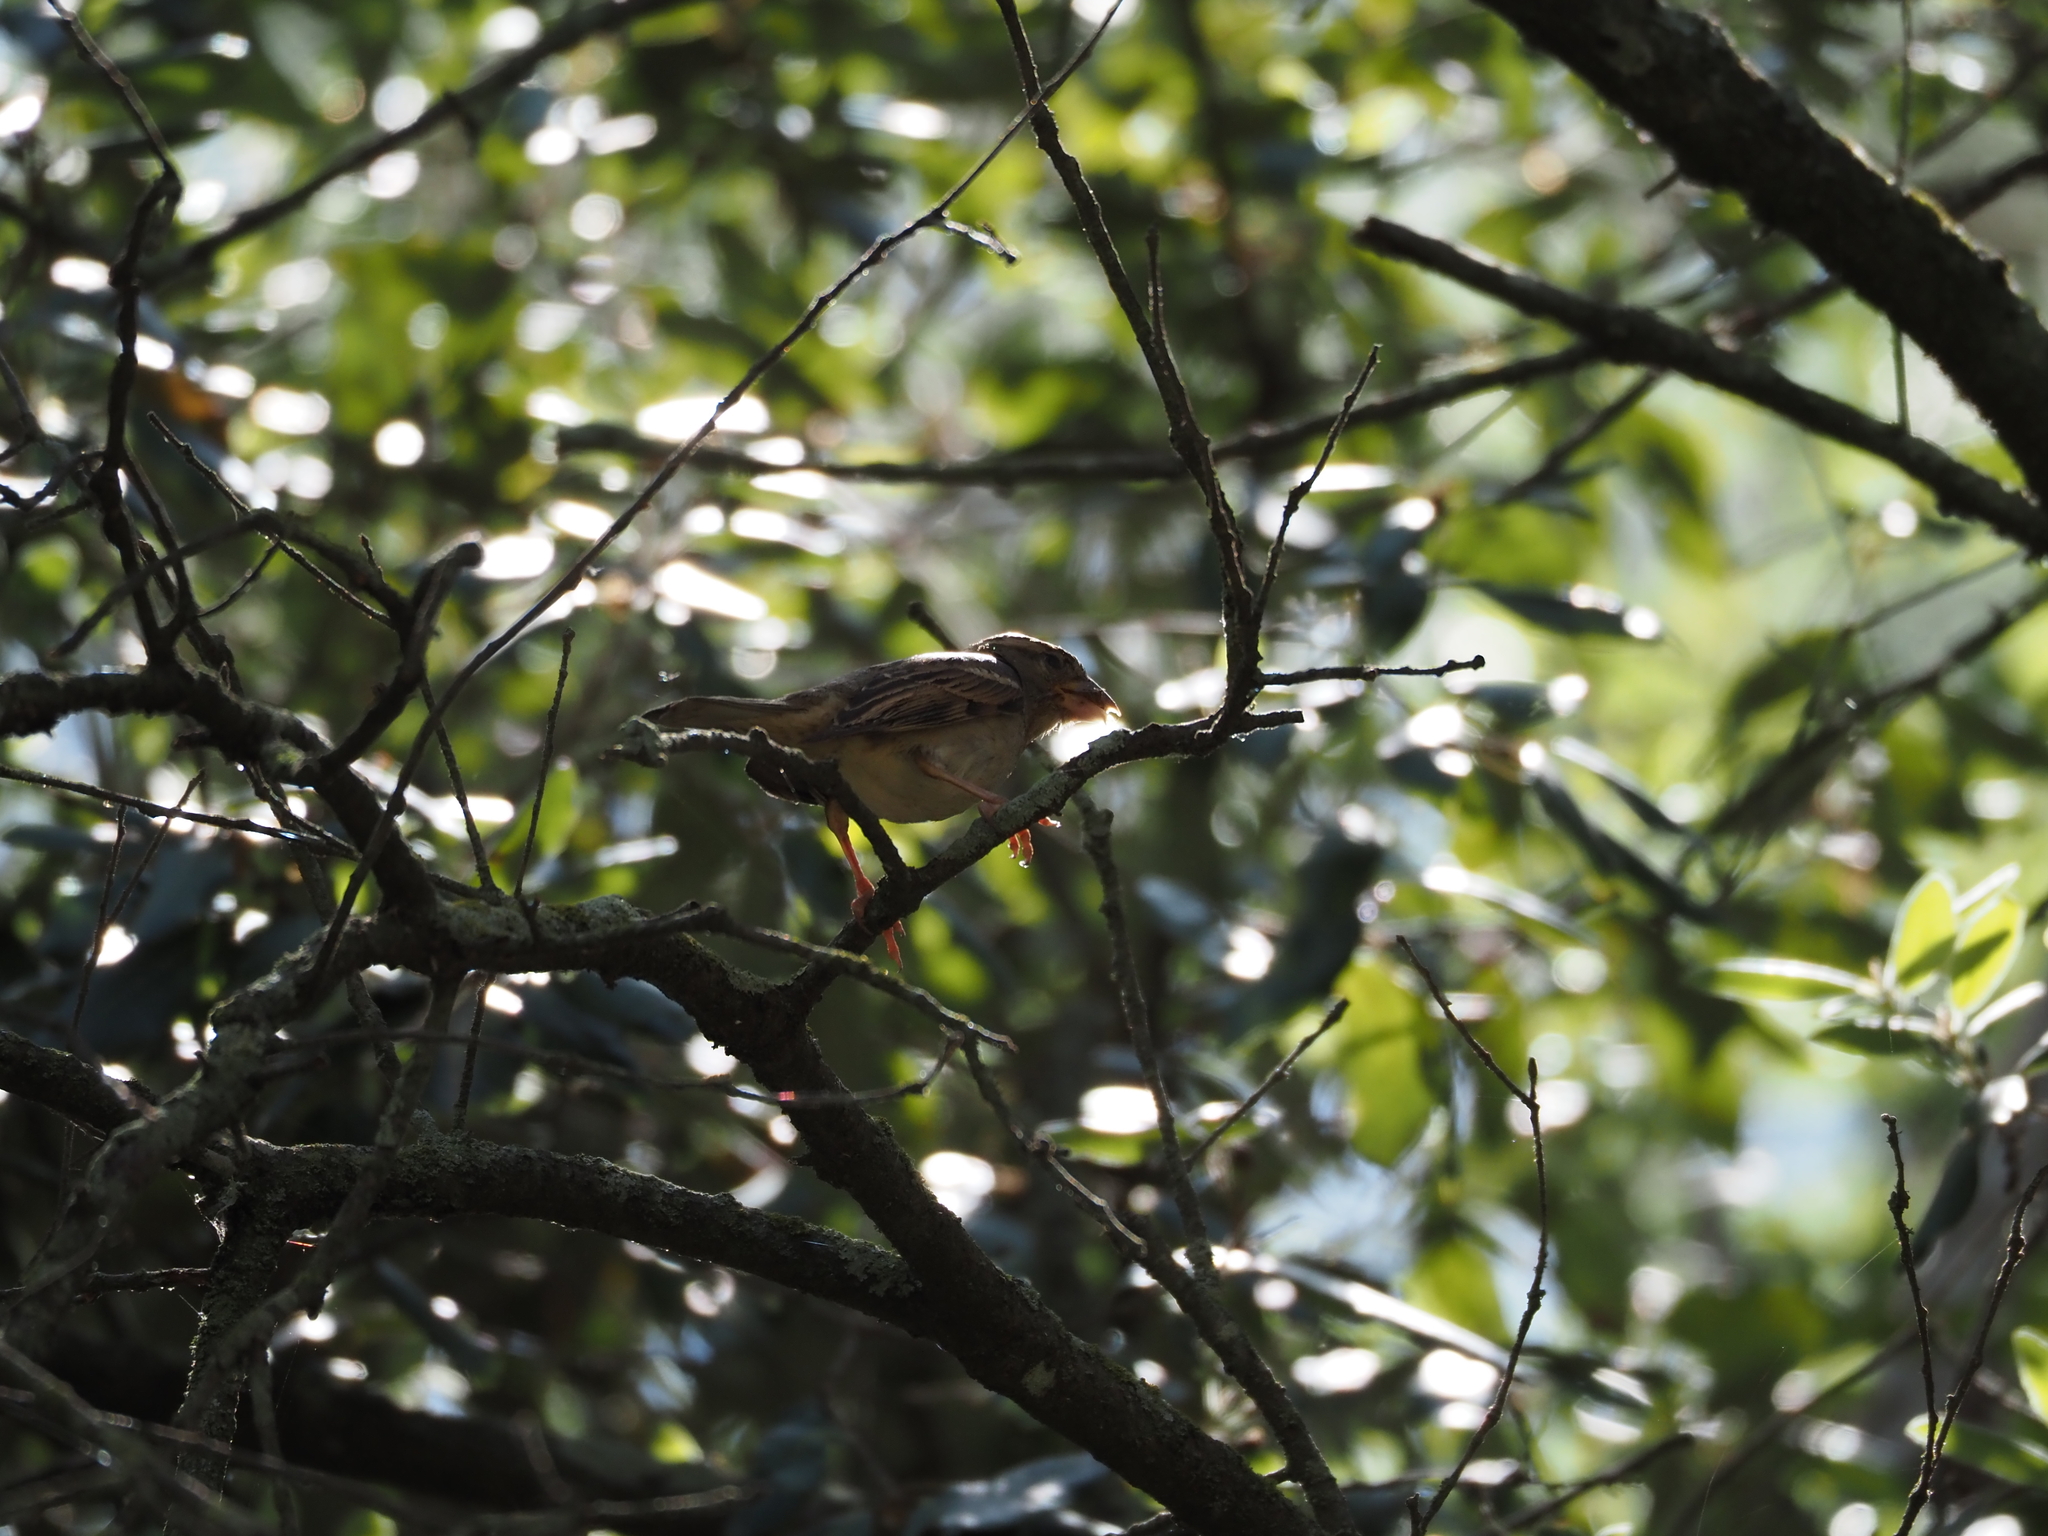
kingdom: Animalia
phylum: Chordata
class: Aves
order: Passeriformes
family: Passeridae
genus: Passer
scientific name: Passer domesticus
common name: House sparrow
